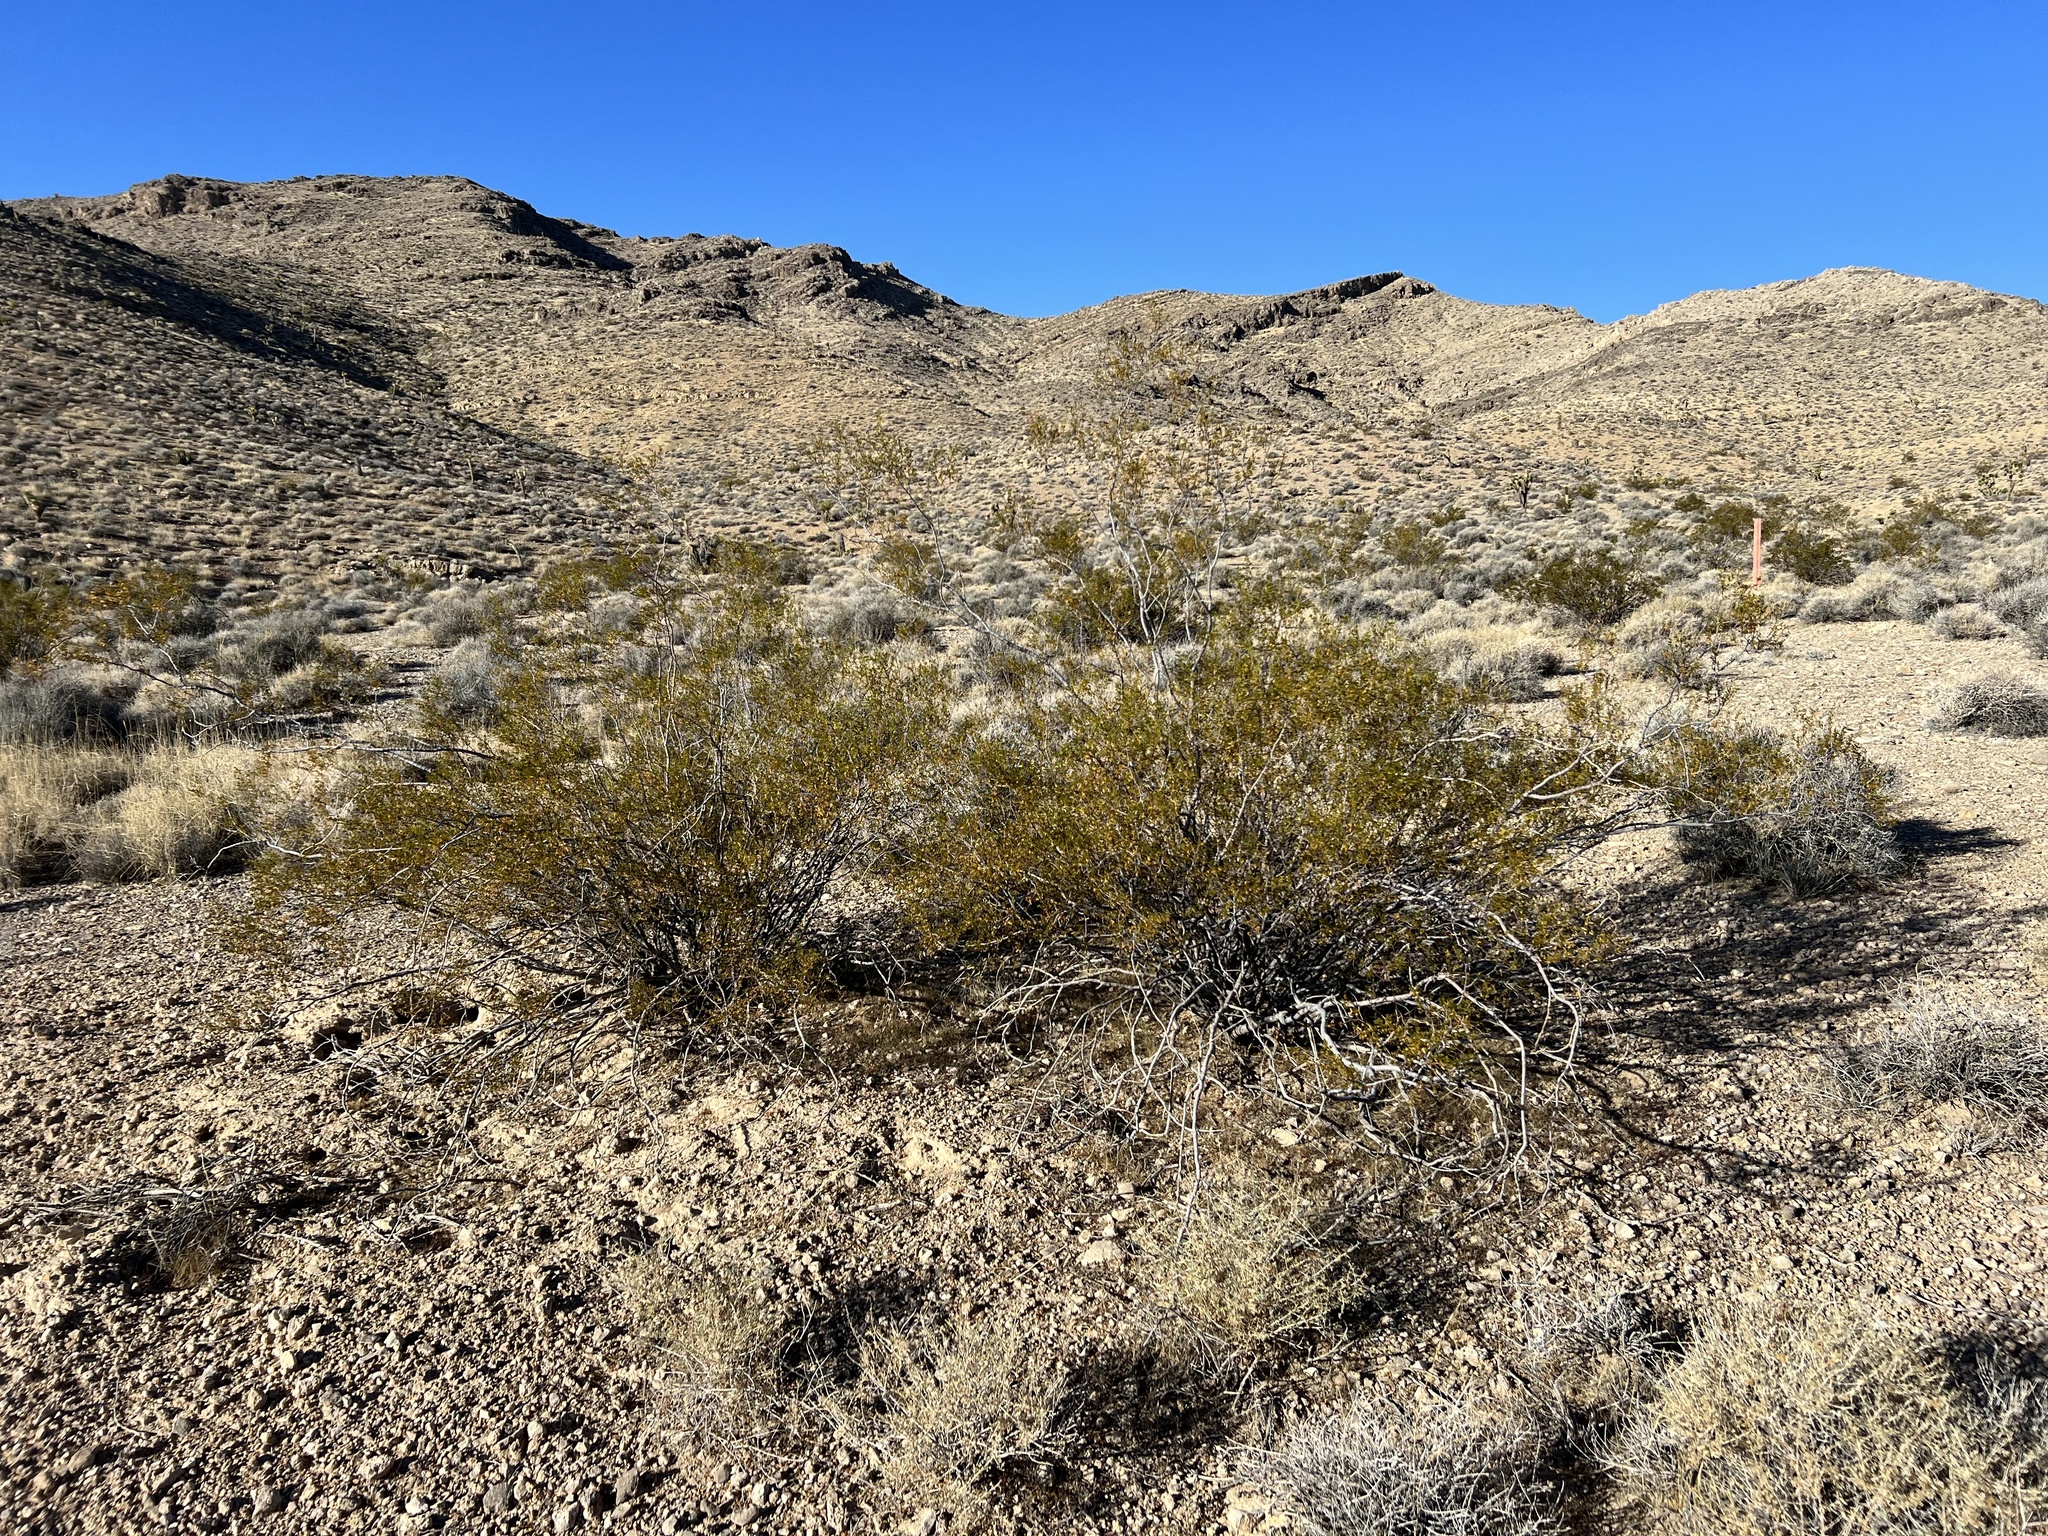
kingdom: Plantae
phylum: Tracheophyta
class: Magnoliopsida
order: Zygophyllales
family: Zygophyllaceae
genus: Larrea
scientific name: Larrea tridentata
